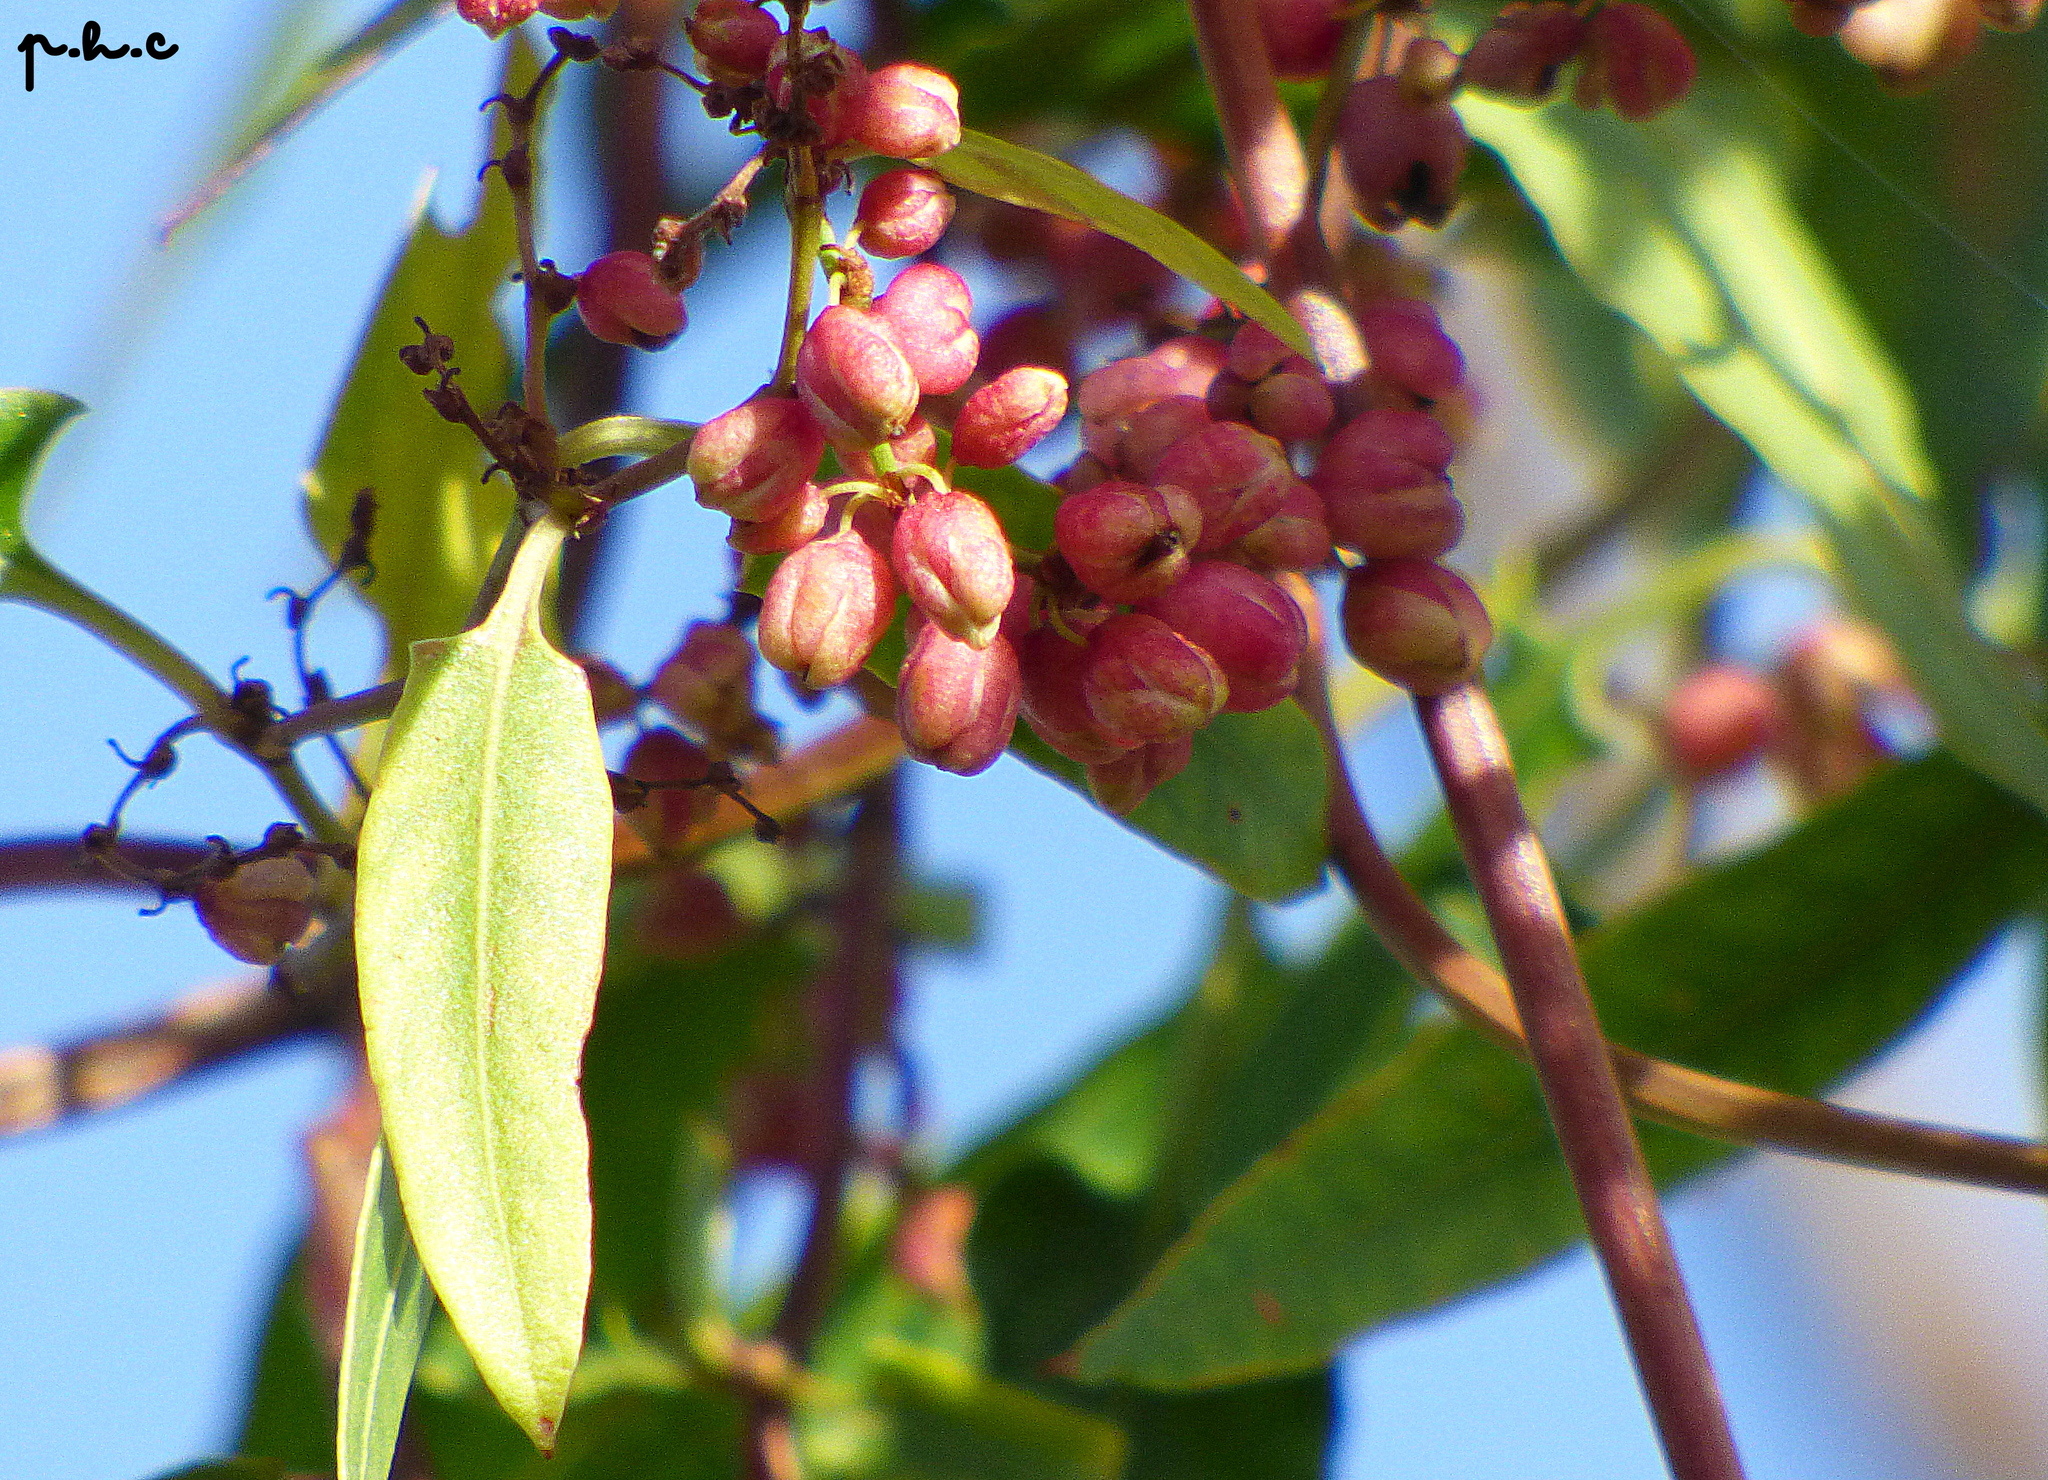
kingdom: Plantae
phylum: Tracheophyta
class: Magnoliopsida
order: Caryophyllales
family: Polygonaceae
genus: Muehlenbeckia
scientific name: Muehlenbeckia sagittifolia
